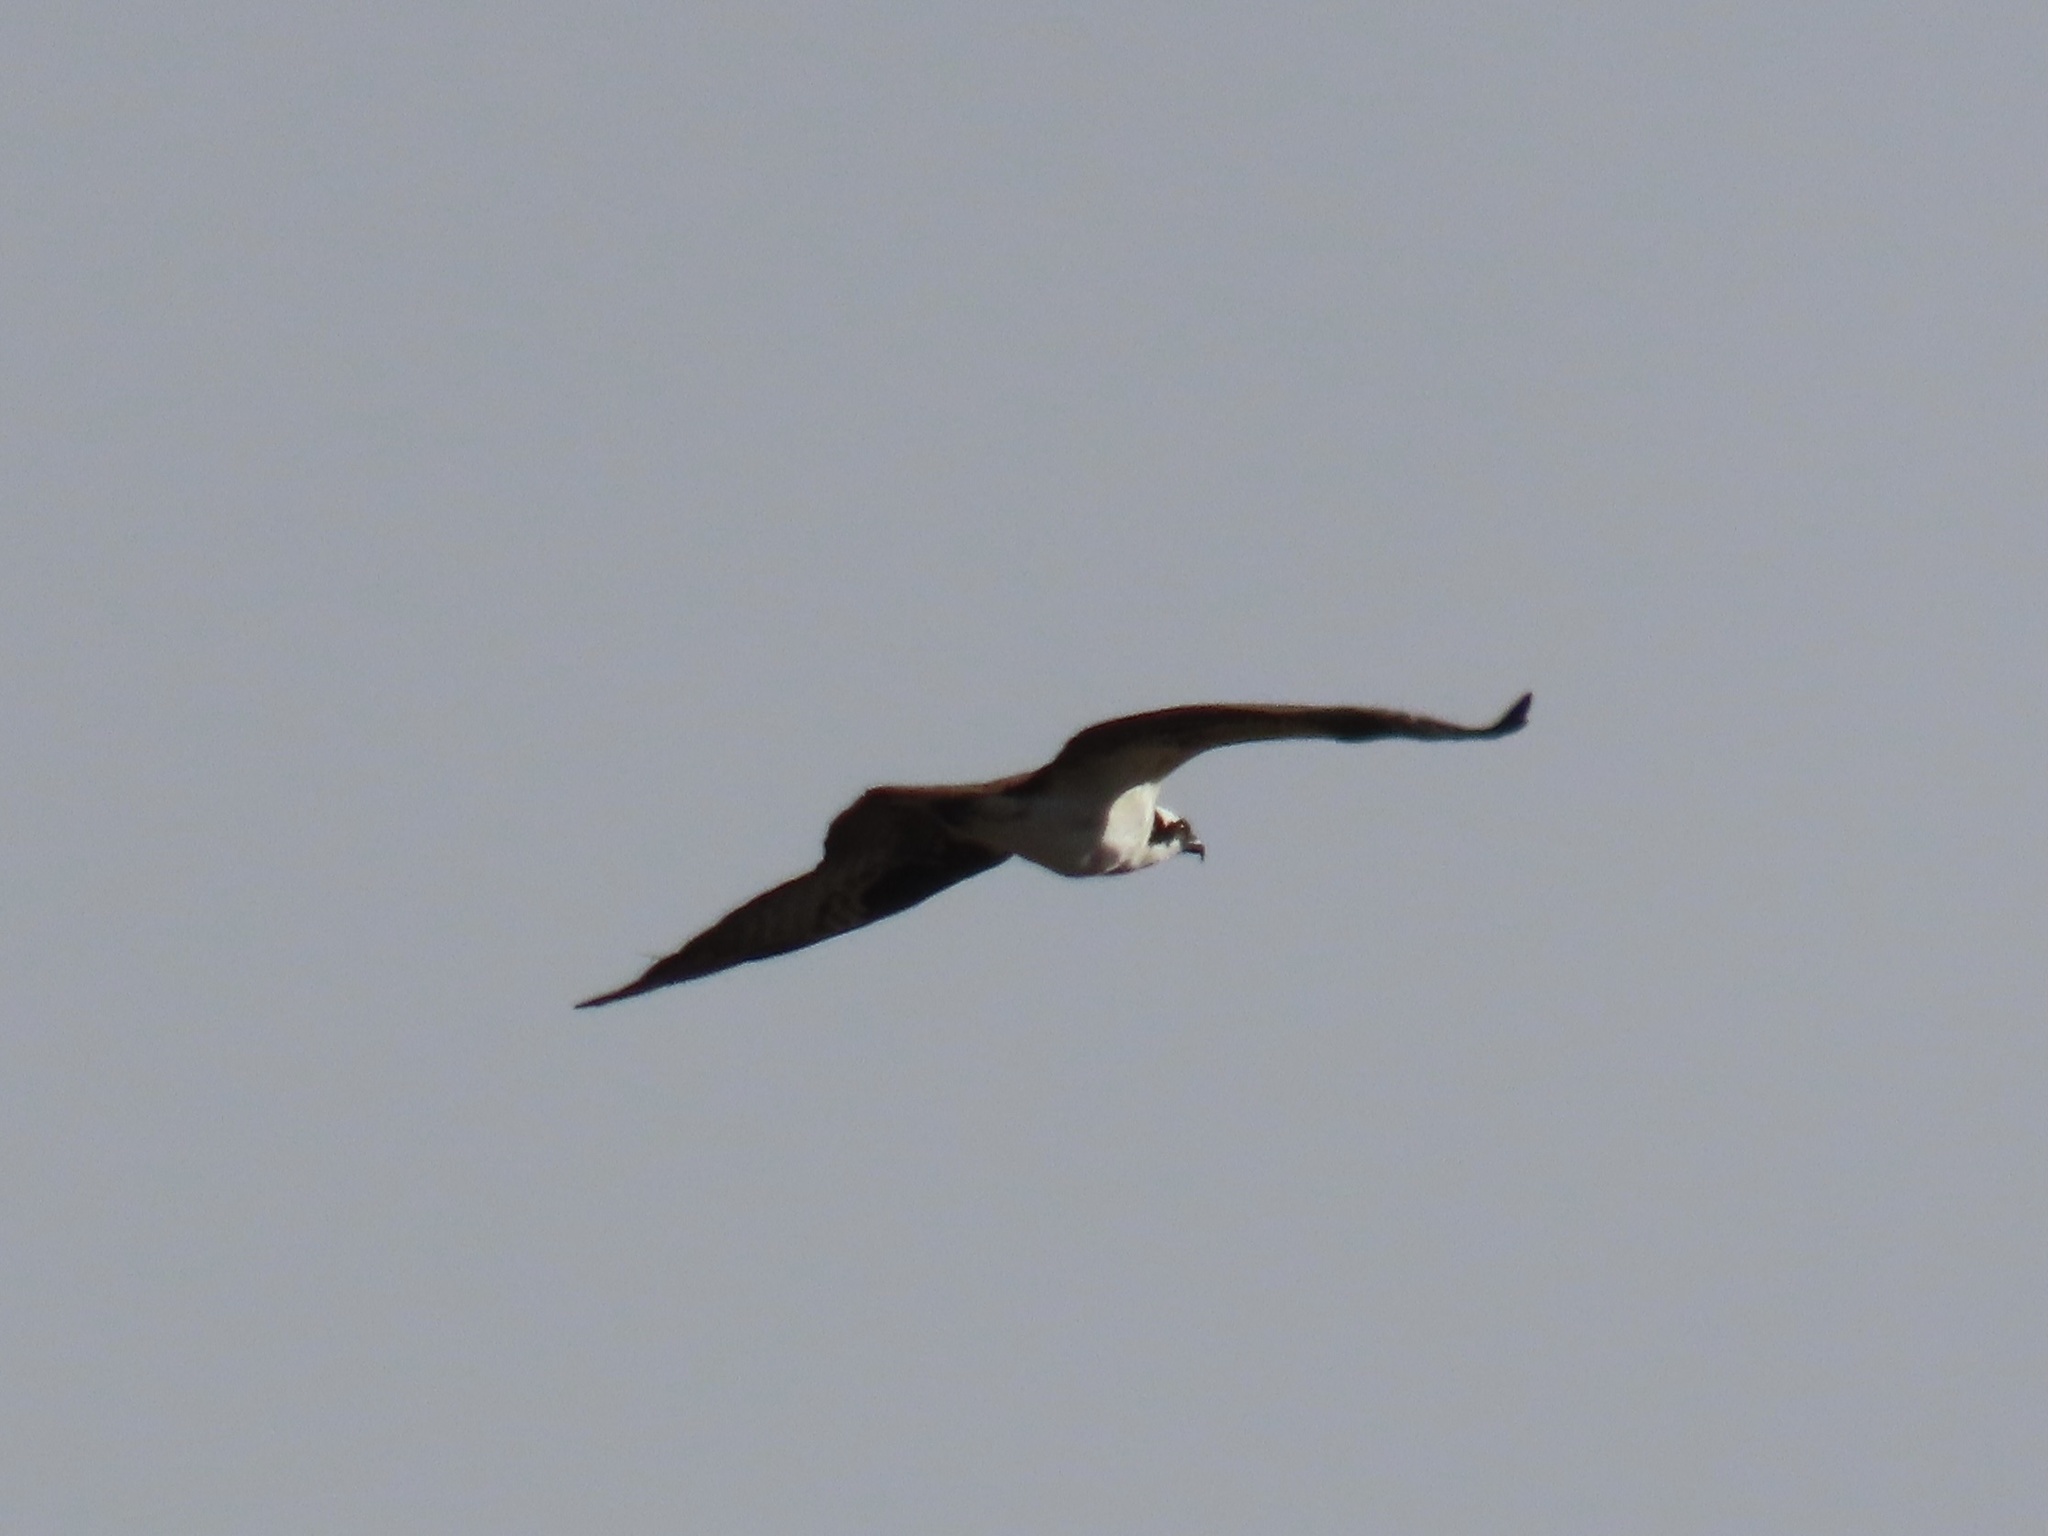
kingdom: Animalia
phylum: Chordata
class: Aves
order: Accipitriformes
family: Pandionidae
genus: Pandion
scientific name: Pandion haliaetus
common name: Osprey
